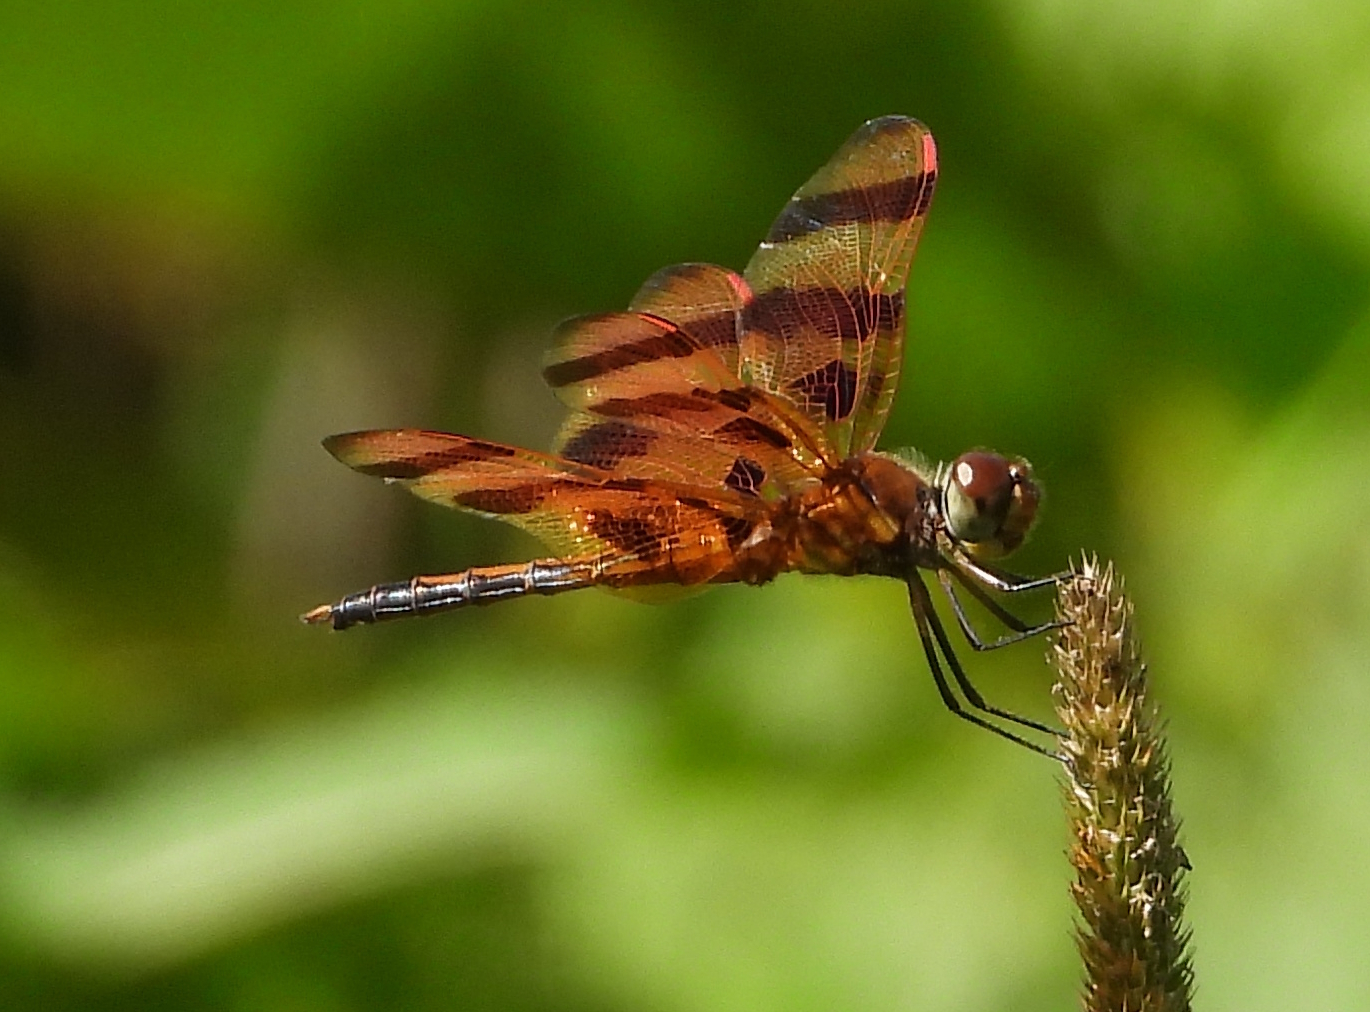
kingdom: Animalia
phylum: Arthropoda
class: Insecta
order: Odonata
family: Libellulidae
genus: Celithemis
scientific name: Celithemis eponina
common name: Halloween pennant
